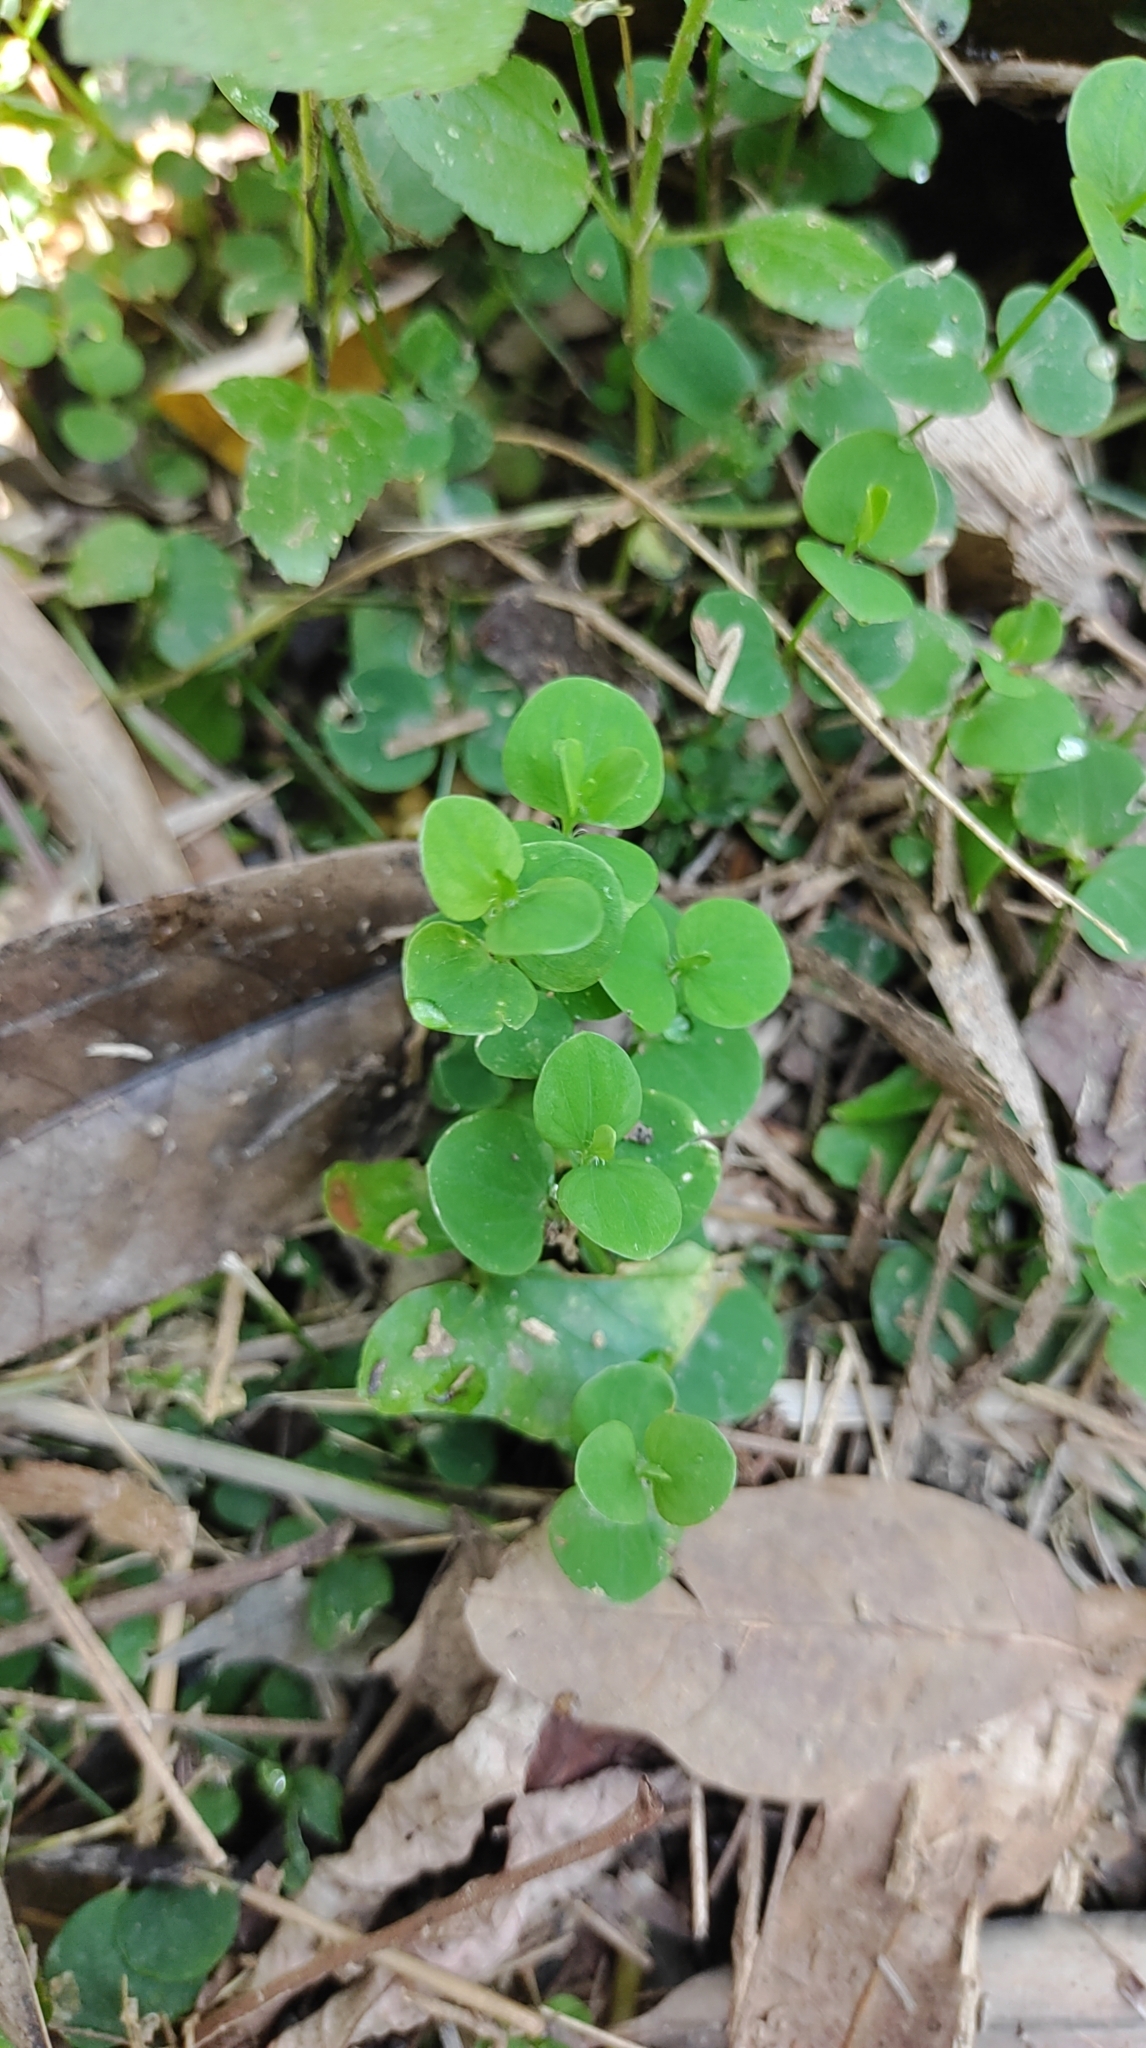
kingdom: Plantae
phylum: Tracheophyta
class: Magnoliopsida
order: Caryophyllales
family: Caryophyllaceae
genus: Drymaria
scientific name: Drymaria cordata
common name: Whitesnow
